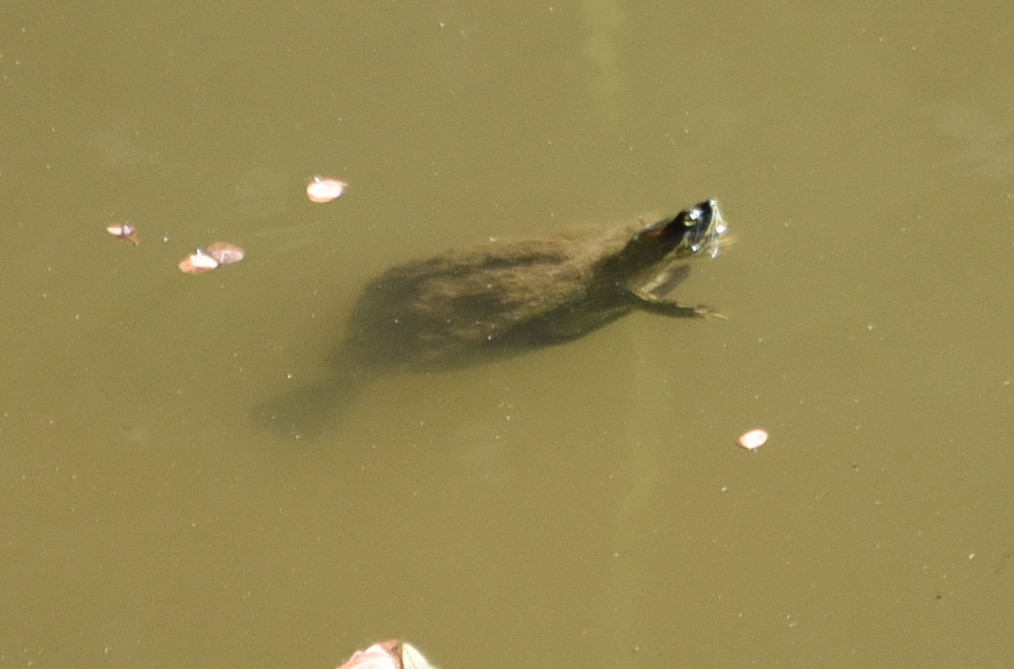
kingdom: Animalia
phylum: Chordata
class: Testudines
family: Emydidae
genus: Trachemys
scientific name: Trachemys scripta
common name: Slider
